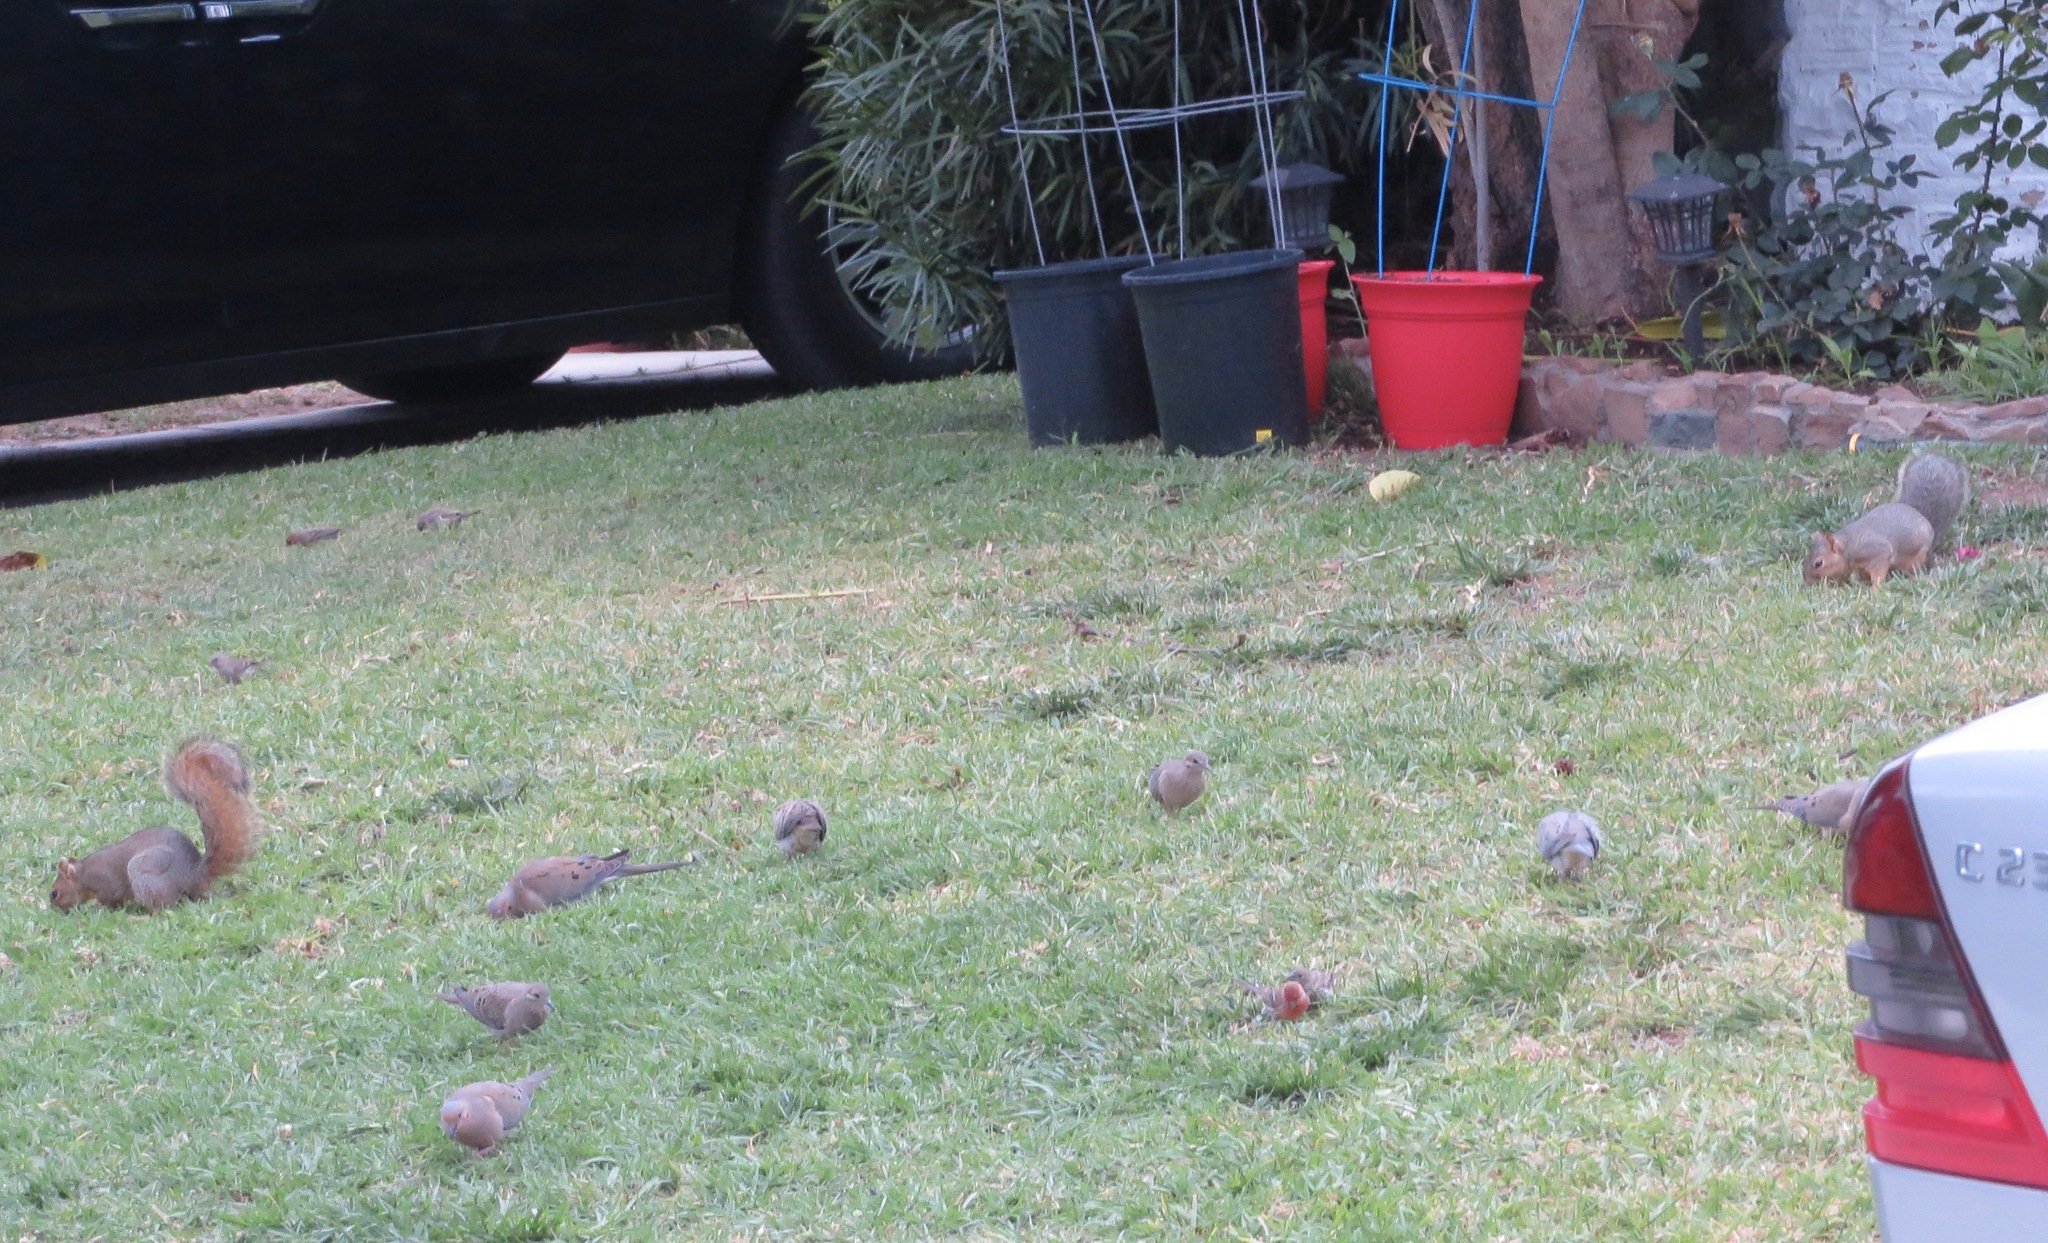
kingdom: Animalia
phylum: Chordata
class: Aves
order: Passeriformes
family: Fringillidae
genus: Haemorhous
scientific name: Haemorhous mexicanus
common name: House finch
